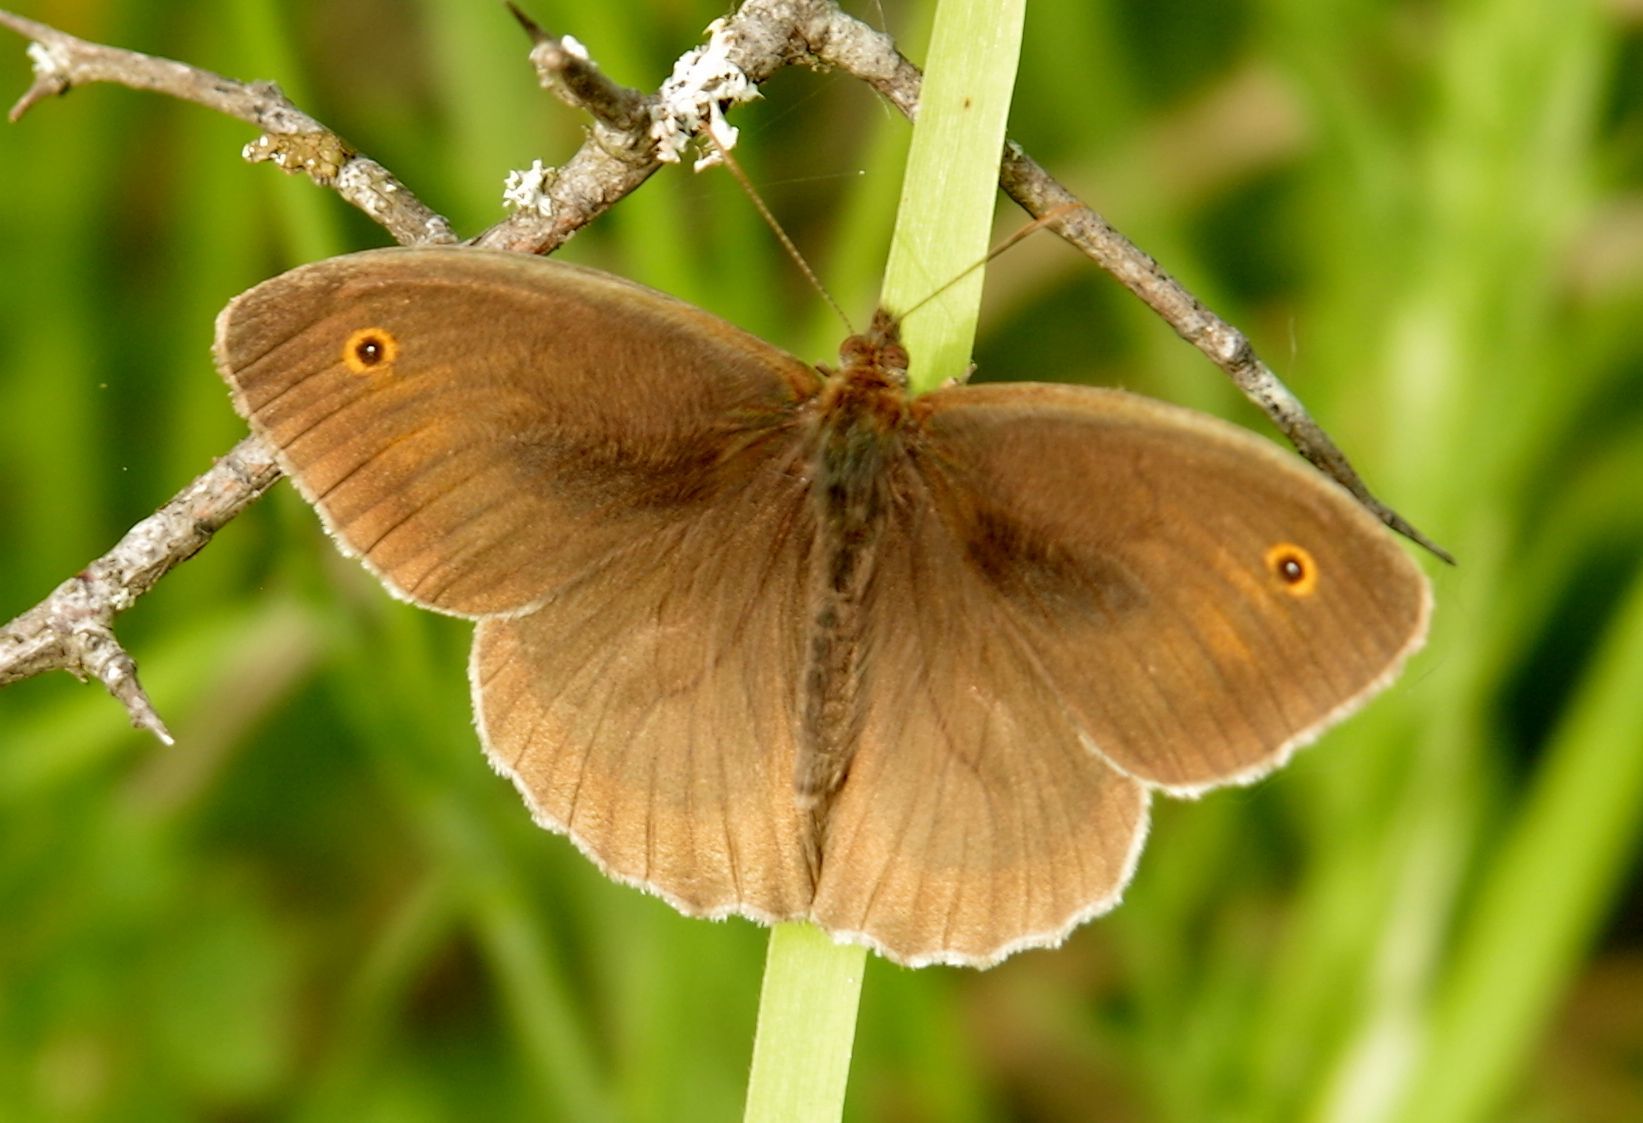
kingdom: Animalia
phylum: Arthropoda
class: Insecta
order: Lepidoptera
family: Nymphalidae
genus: Maniola
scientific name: Maniola jurtina
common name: Meadow brown
